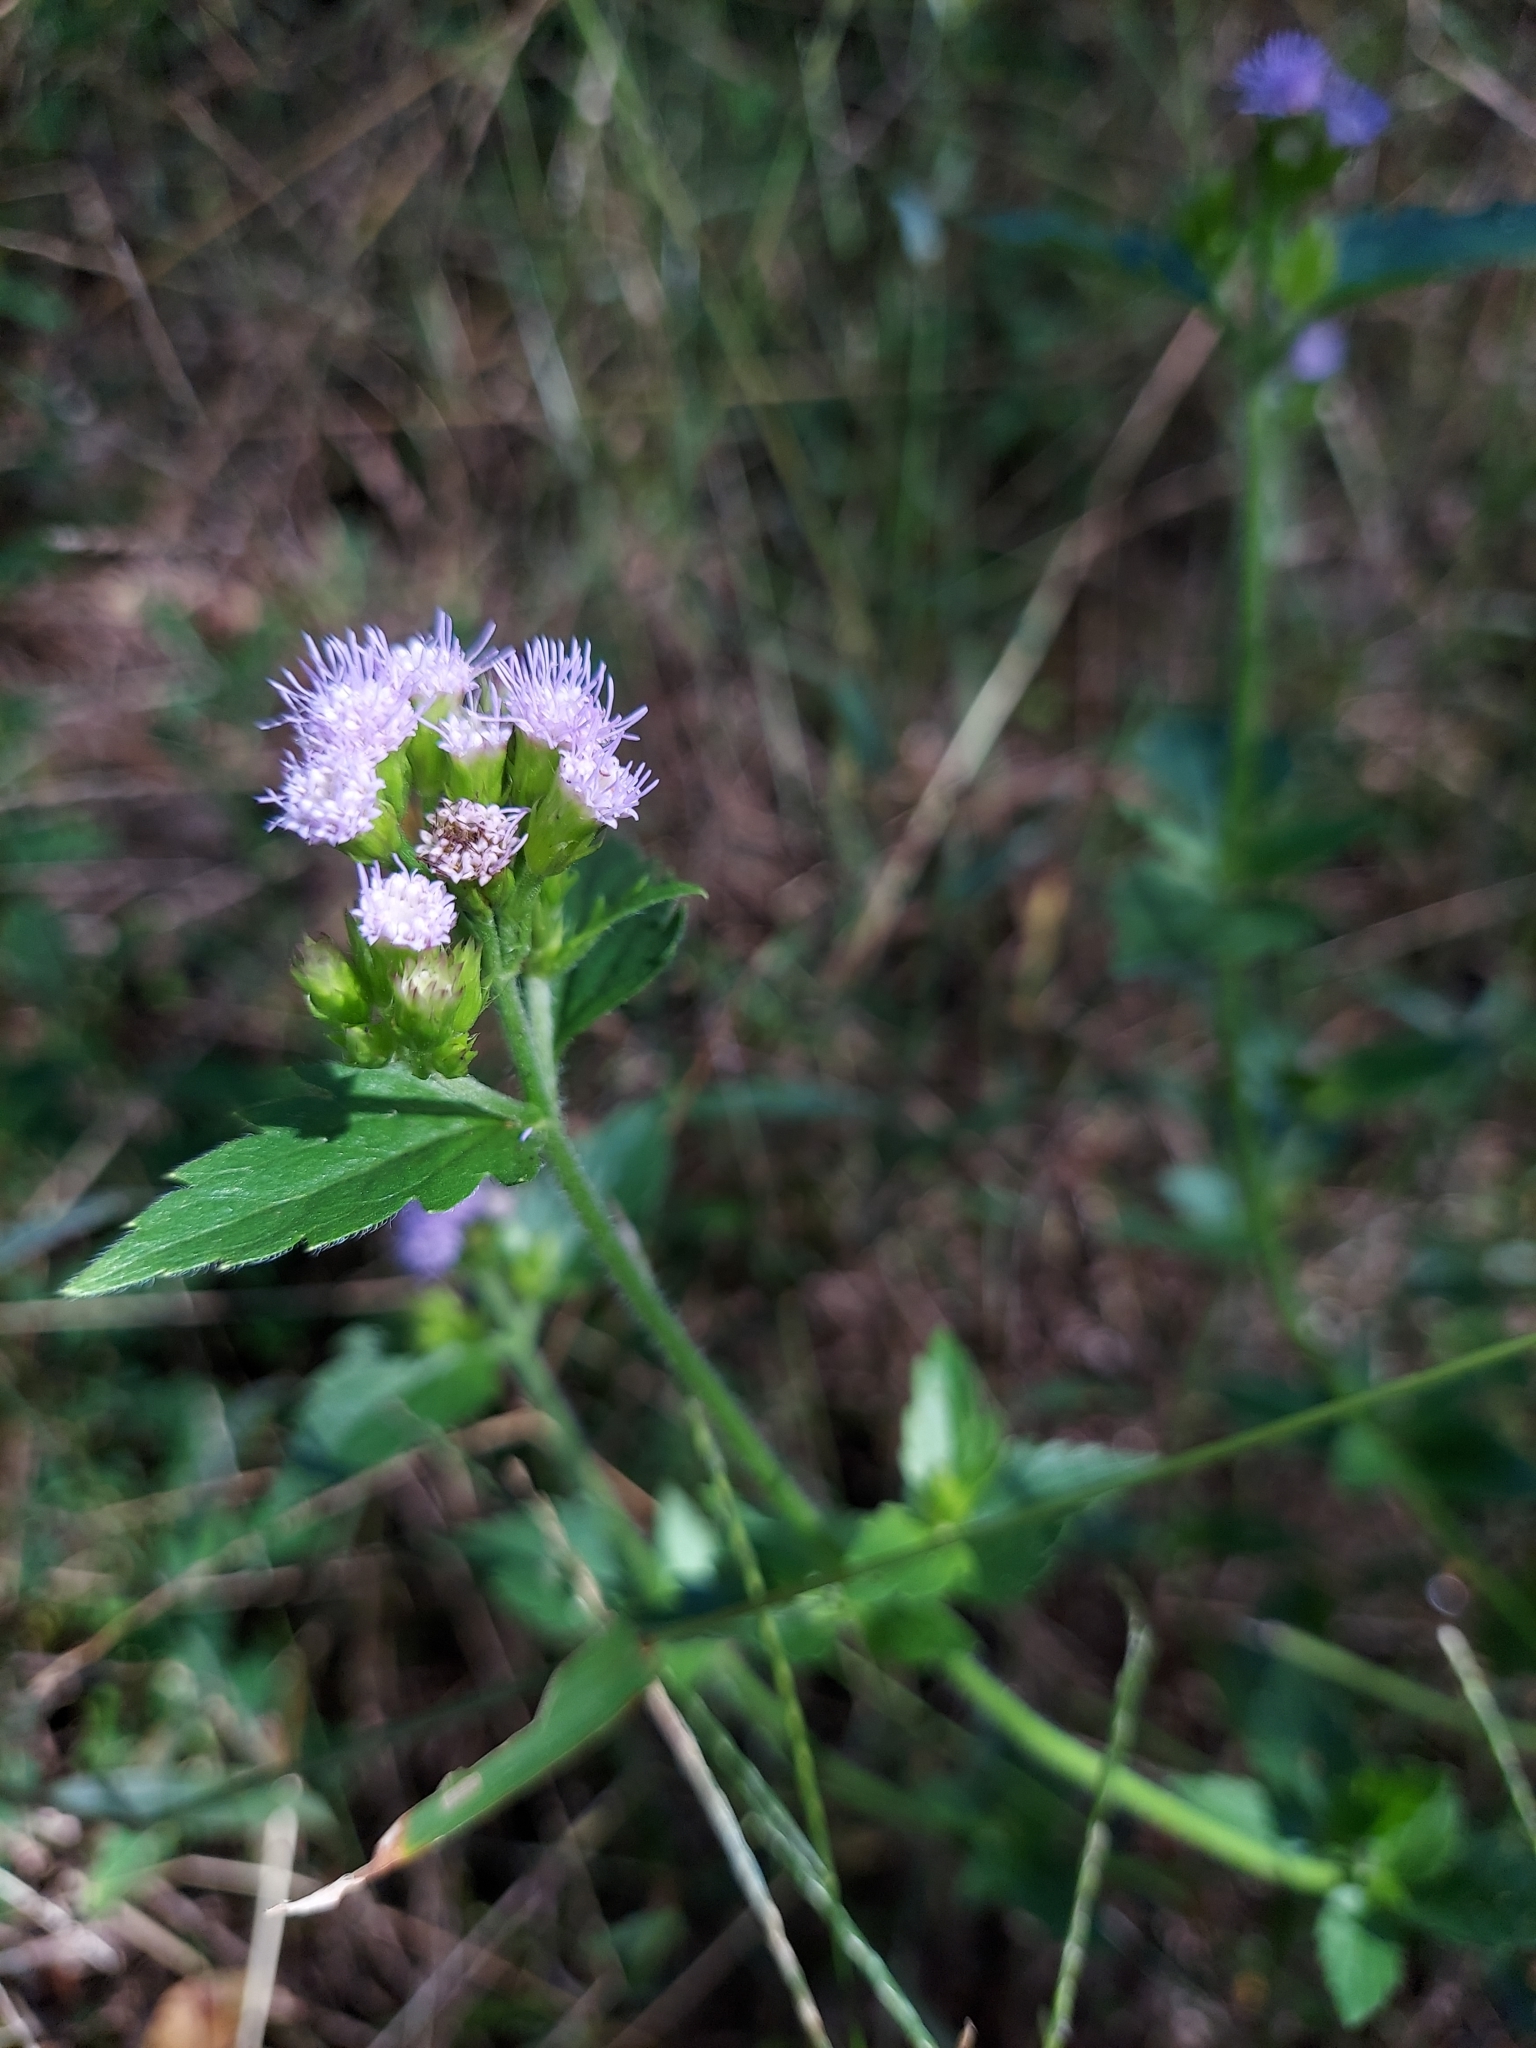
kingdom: Plantae
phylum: Tracheophyta
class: Magnoliopsida
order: Asterales
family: Asteraceae
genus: Praxelis
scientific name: Praxelis clematidea
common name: Praxelis
